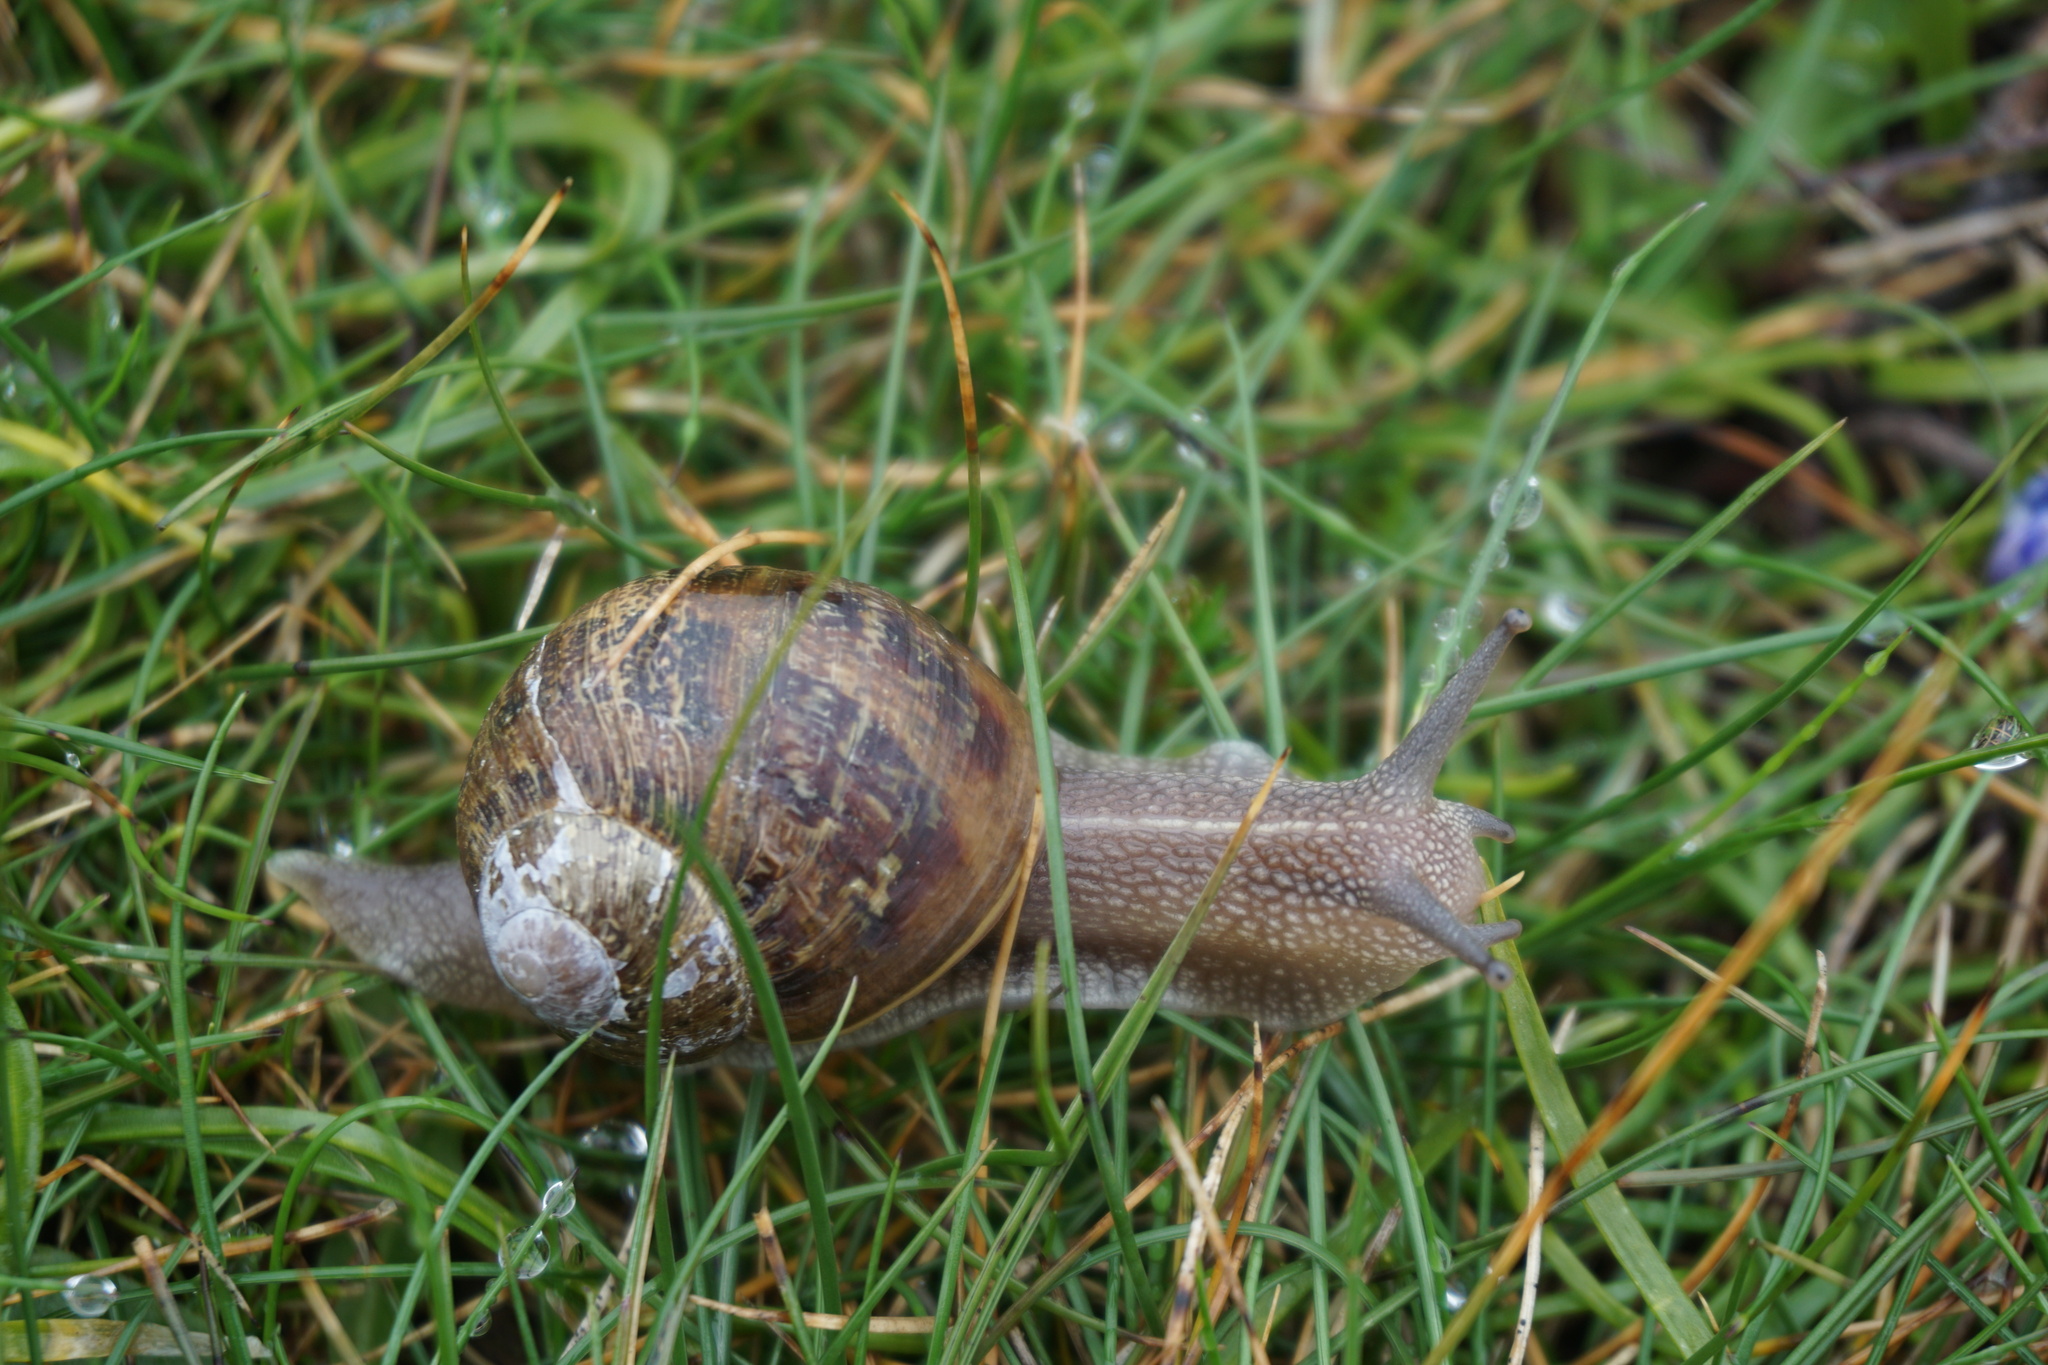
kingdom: Animalia
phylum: Mollusca
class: Gastropoda
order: Stylommatophora
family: Helicidae
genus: Cornu
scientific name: Cornu aspersum
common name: Brown garden snail
